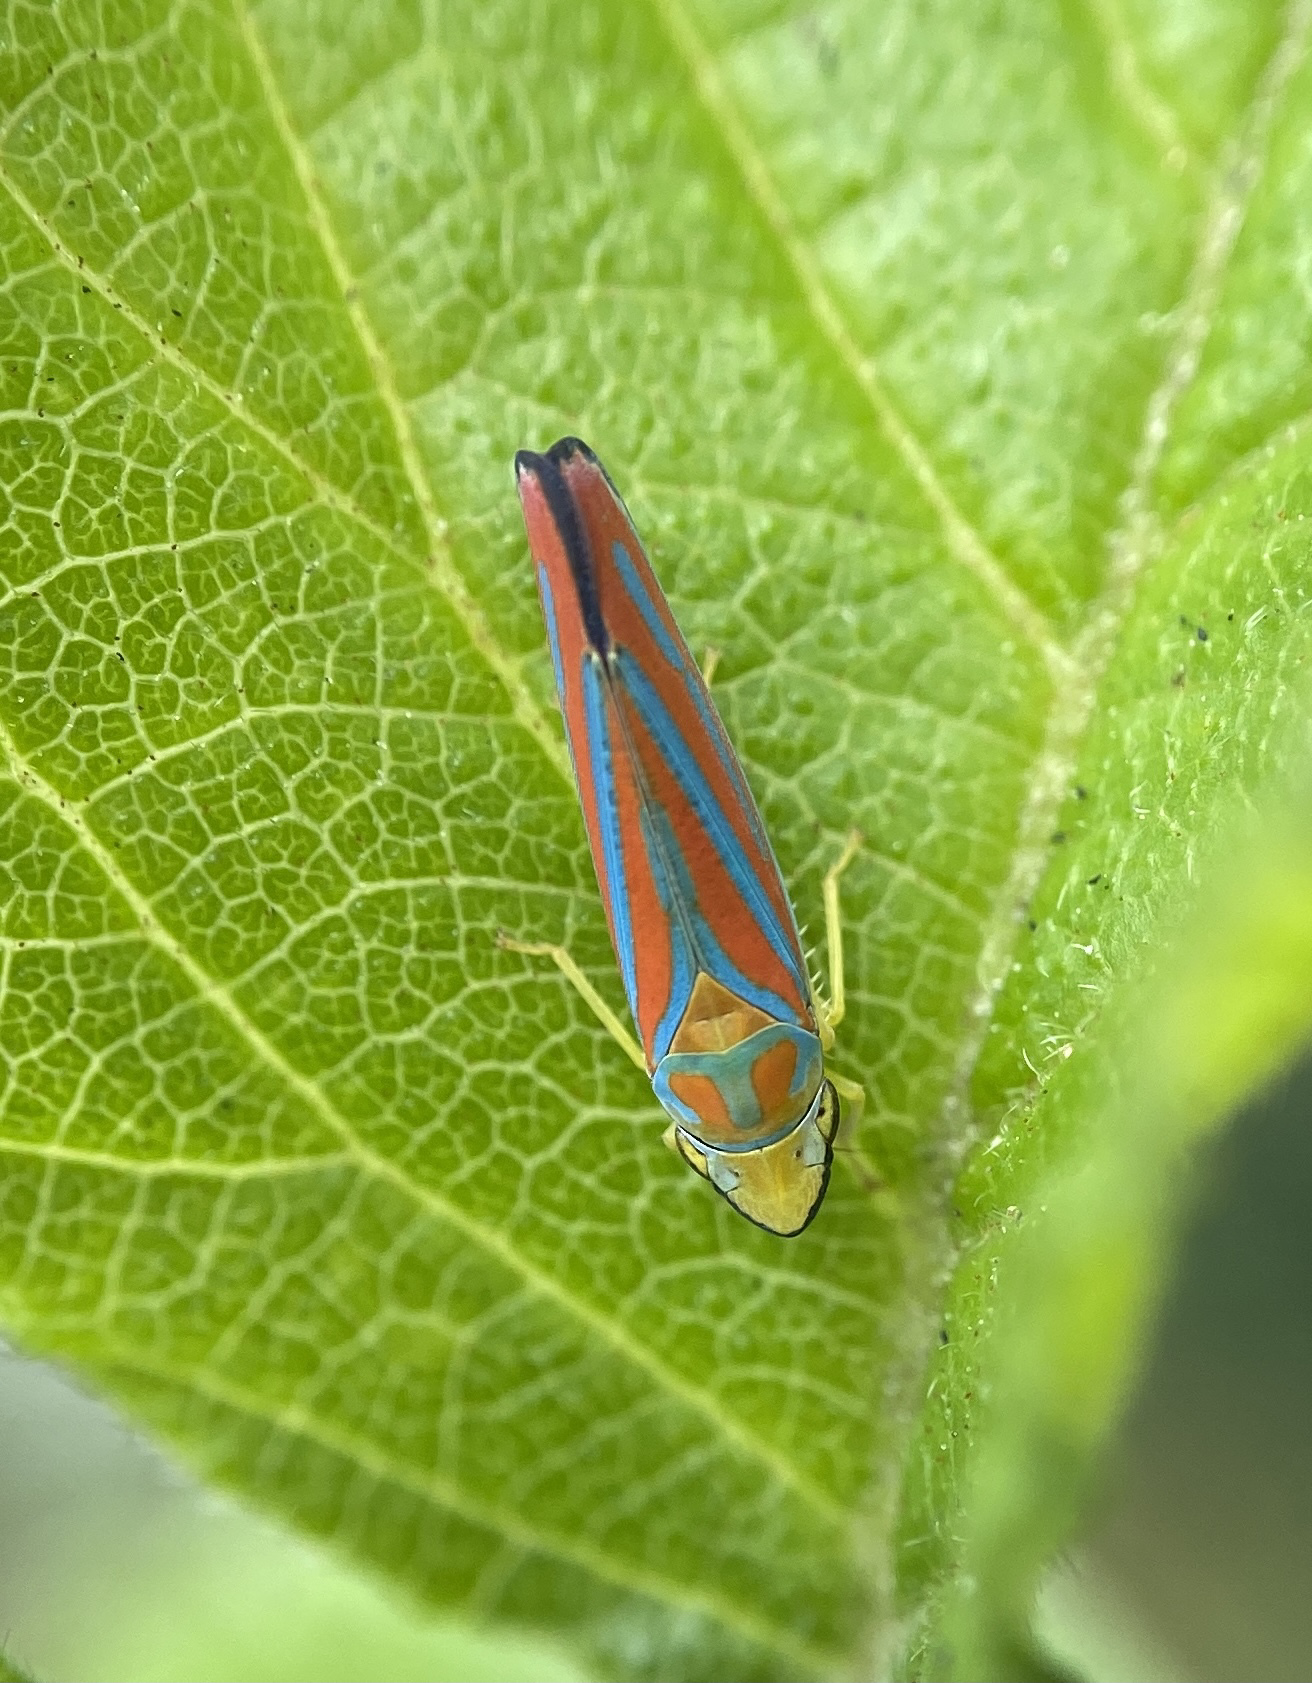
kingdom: Animalia
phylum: Arthropoda
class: Insecta
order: Hemiptera
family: Cicadellidae
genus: Graphocephala
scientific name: Graphocephala coccinea
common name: Candy-striped leafhopper
